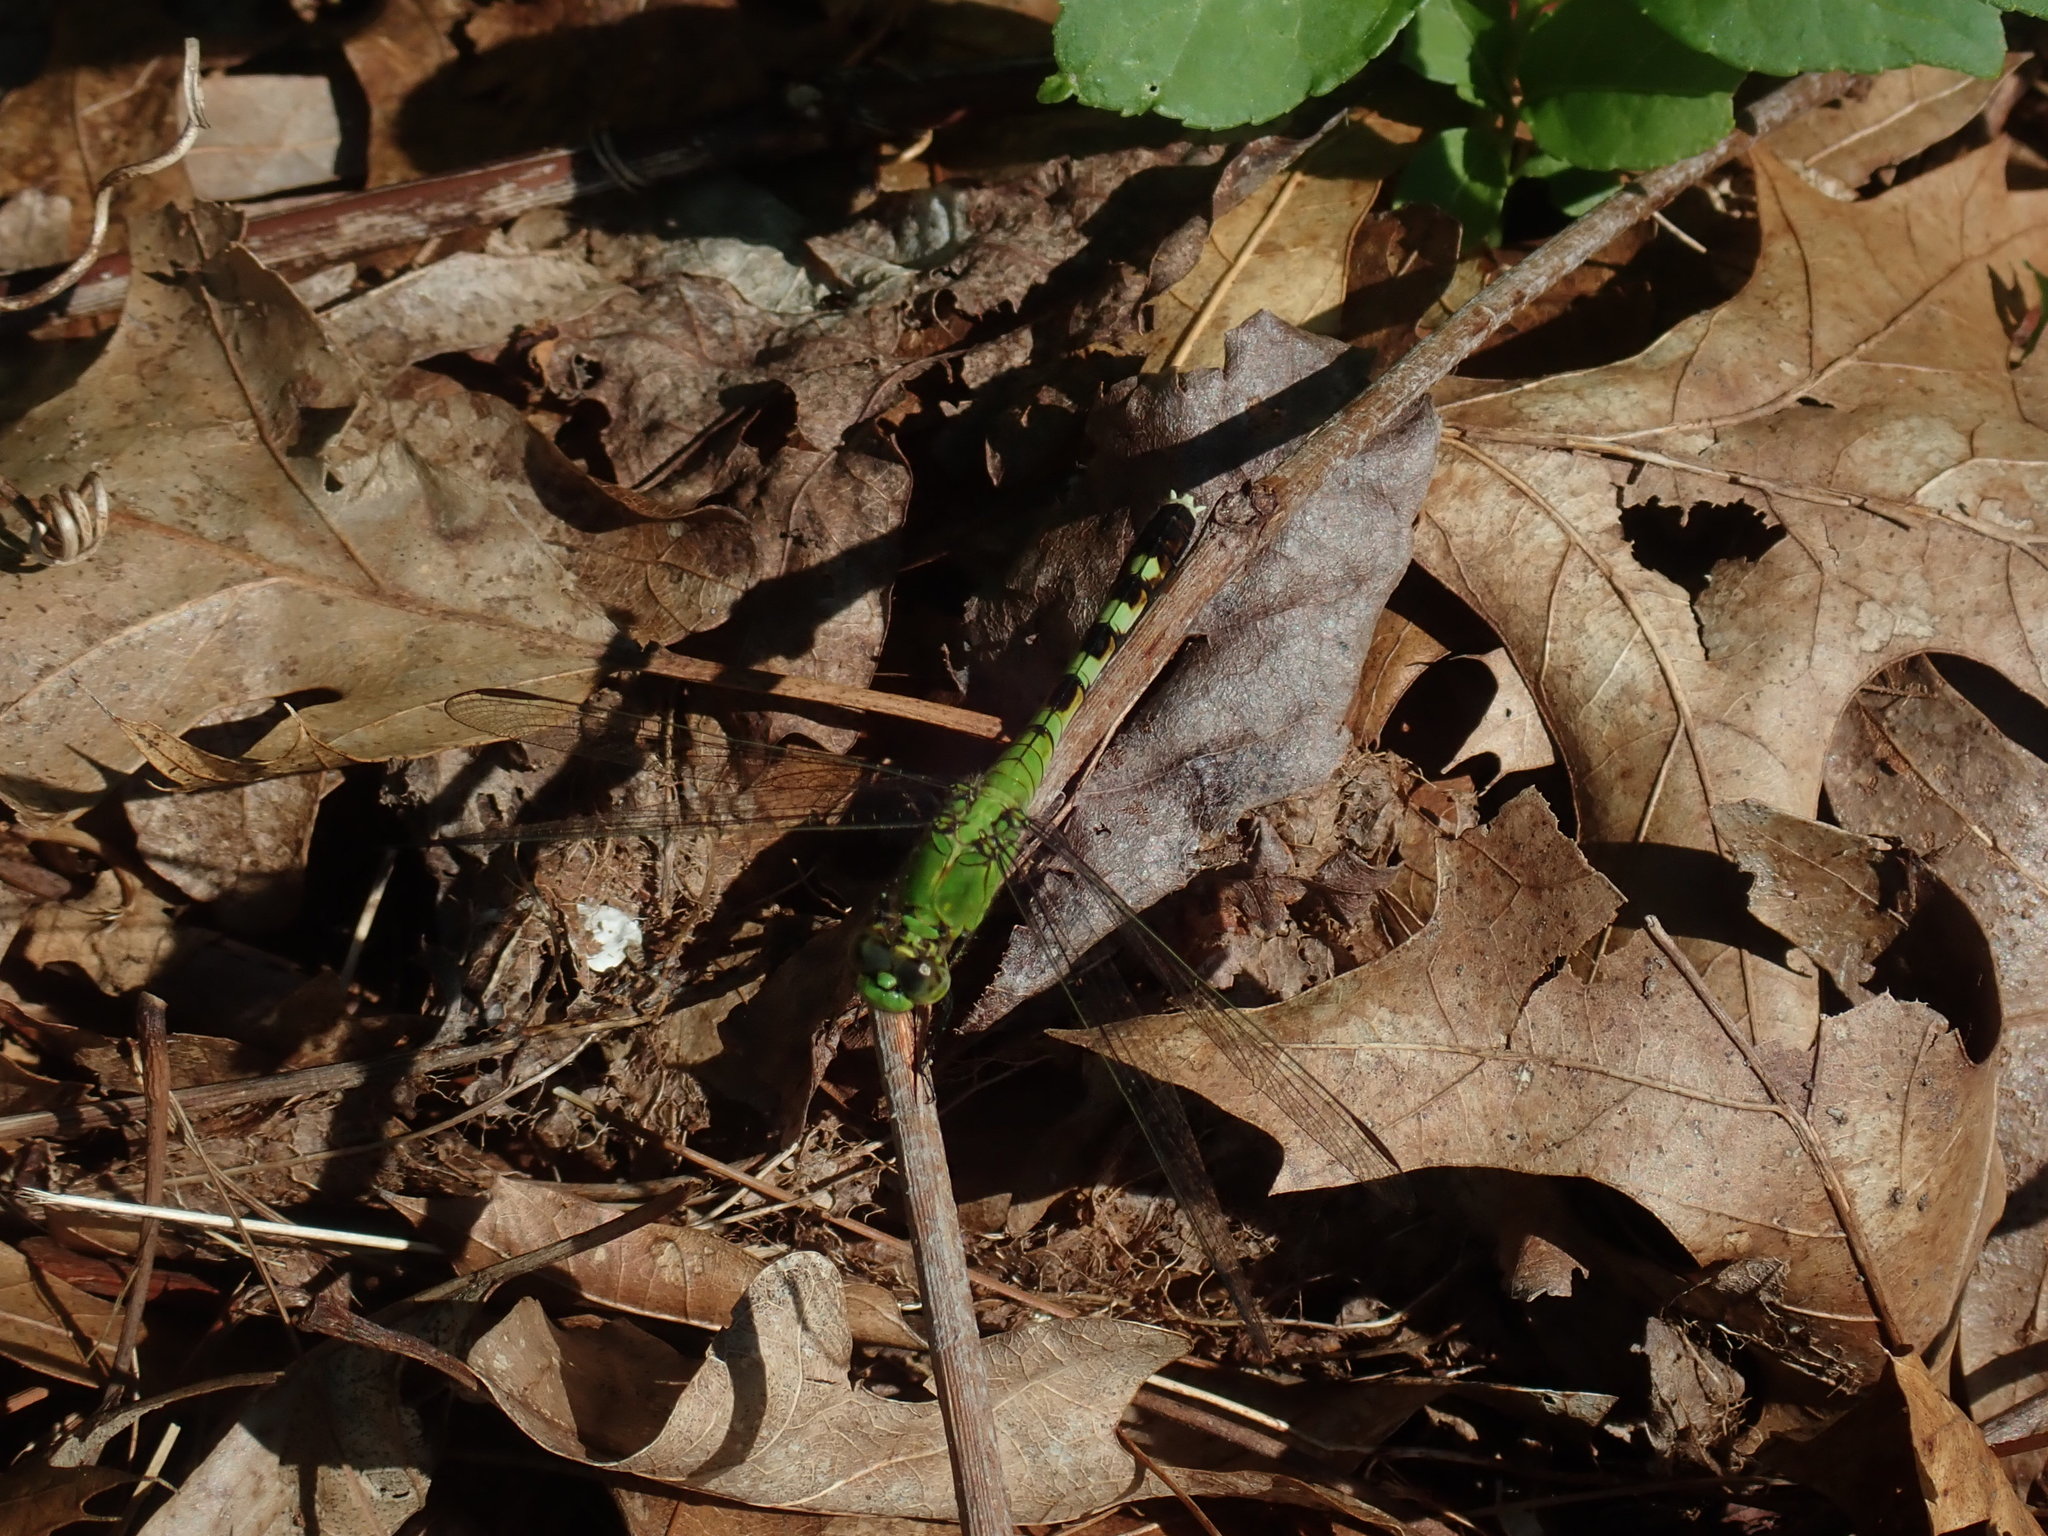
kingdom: Animalia
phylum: Arthropoda
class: Insecta
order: Odonata
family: Libellulidae
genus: Erythemis
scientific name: Erythemis simplicicollis
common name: Eastern pondhawk
